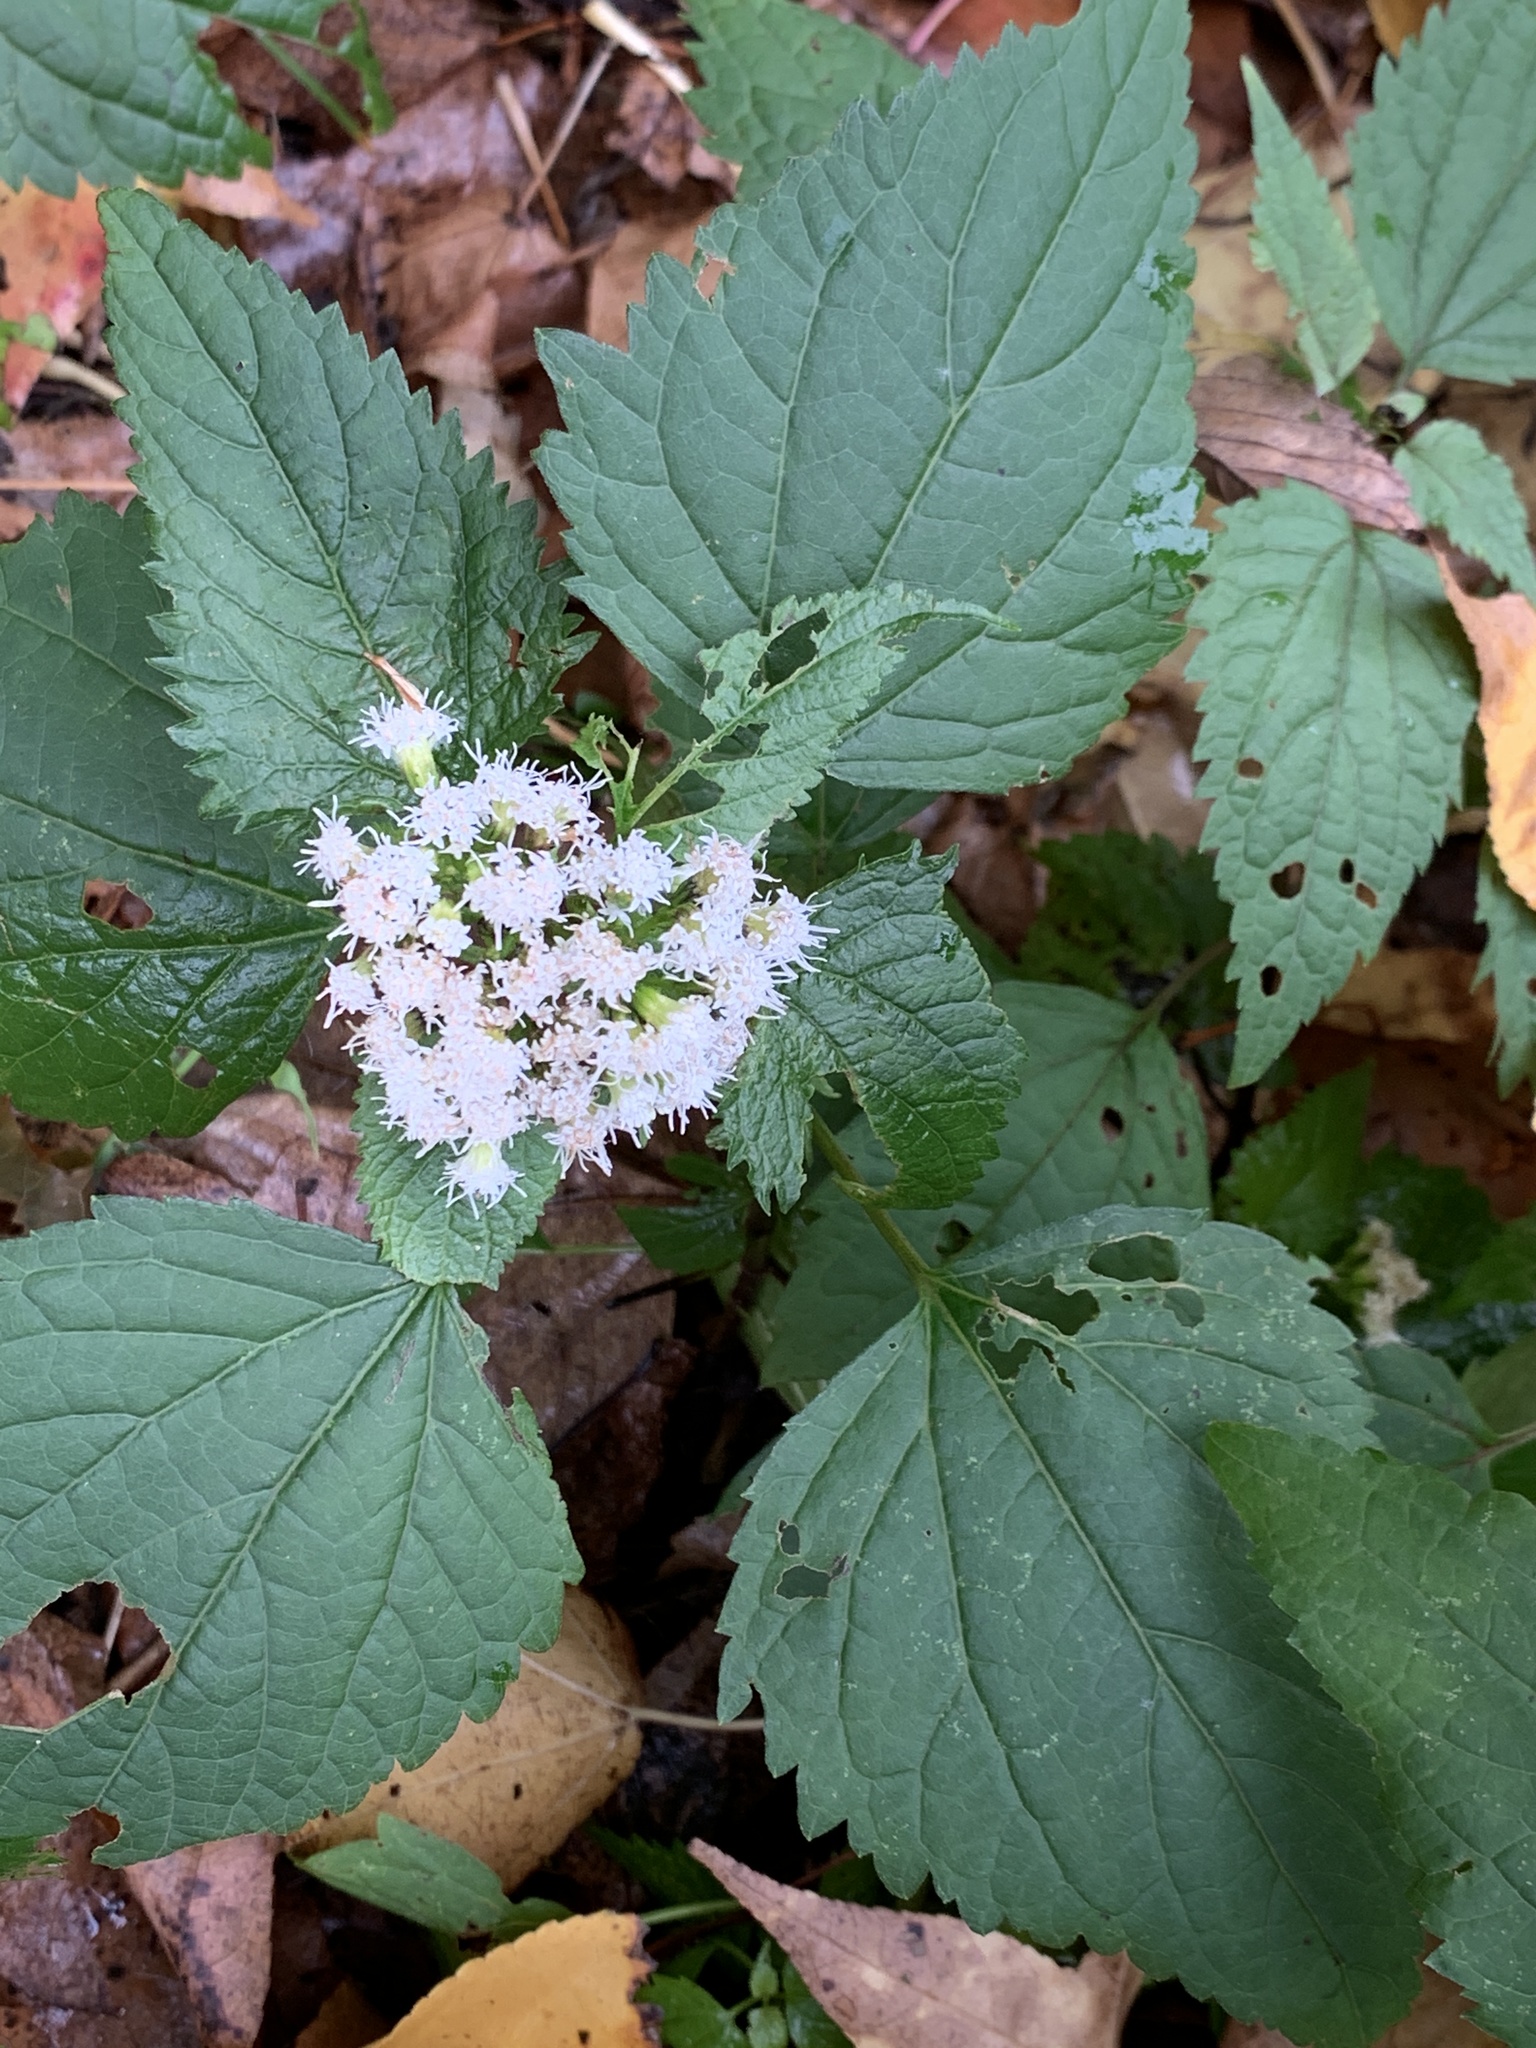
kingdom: Plantae
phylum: Tracheophyta
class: Magnoliopsida
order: Asterales
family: Asteraceae
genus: Ageratina
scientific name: Ageratina altissima
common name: White snakeroot
